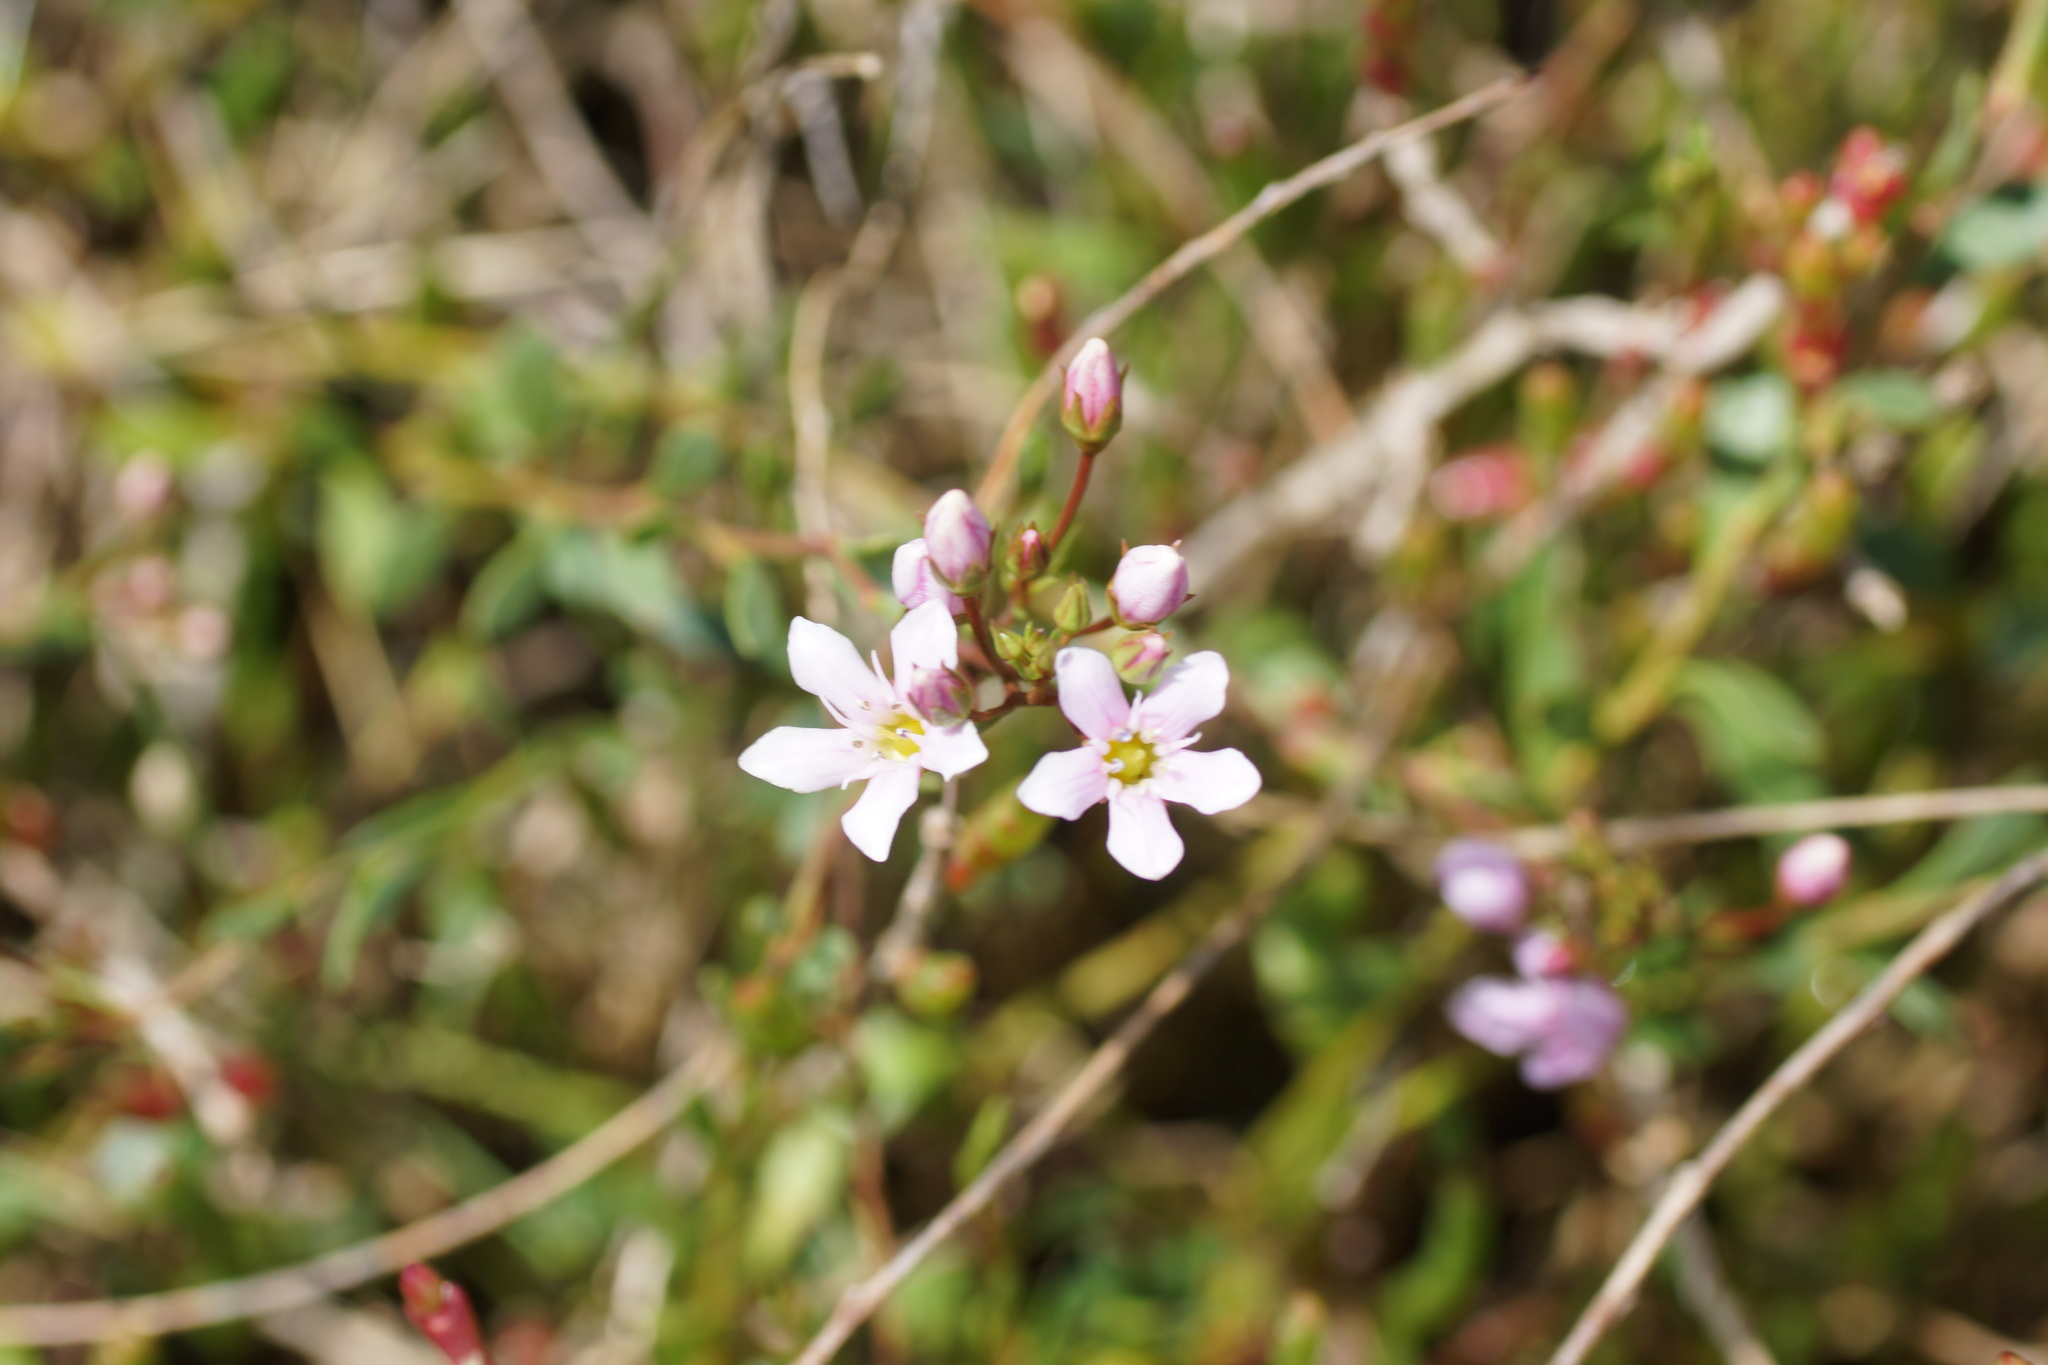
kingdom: Plantae
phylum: Tracheophyta
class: Magnoliopsida
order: Ericales
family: Primulaceae
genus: Samolus
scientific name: Samolus repens
